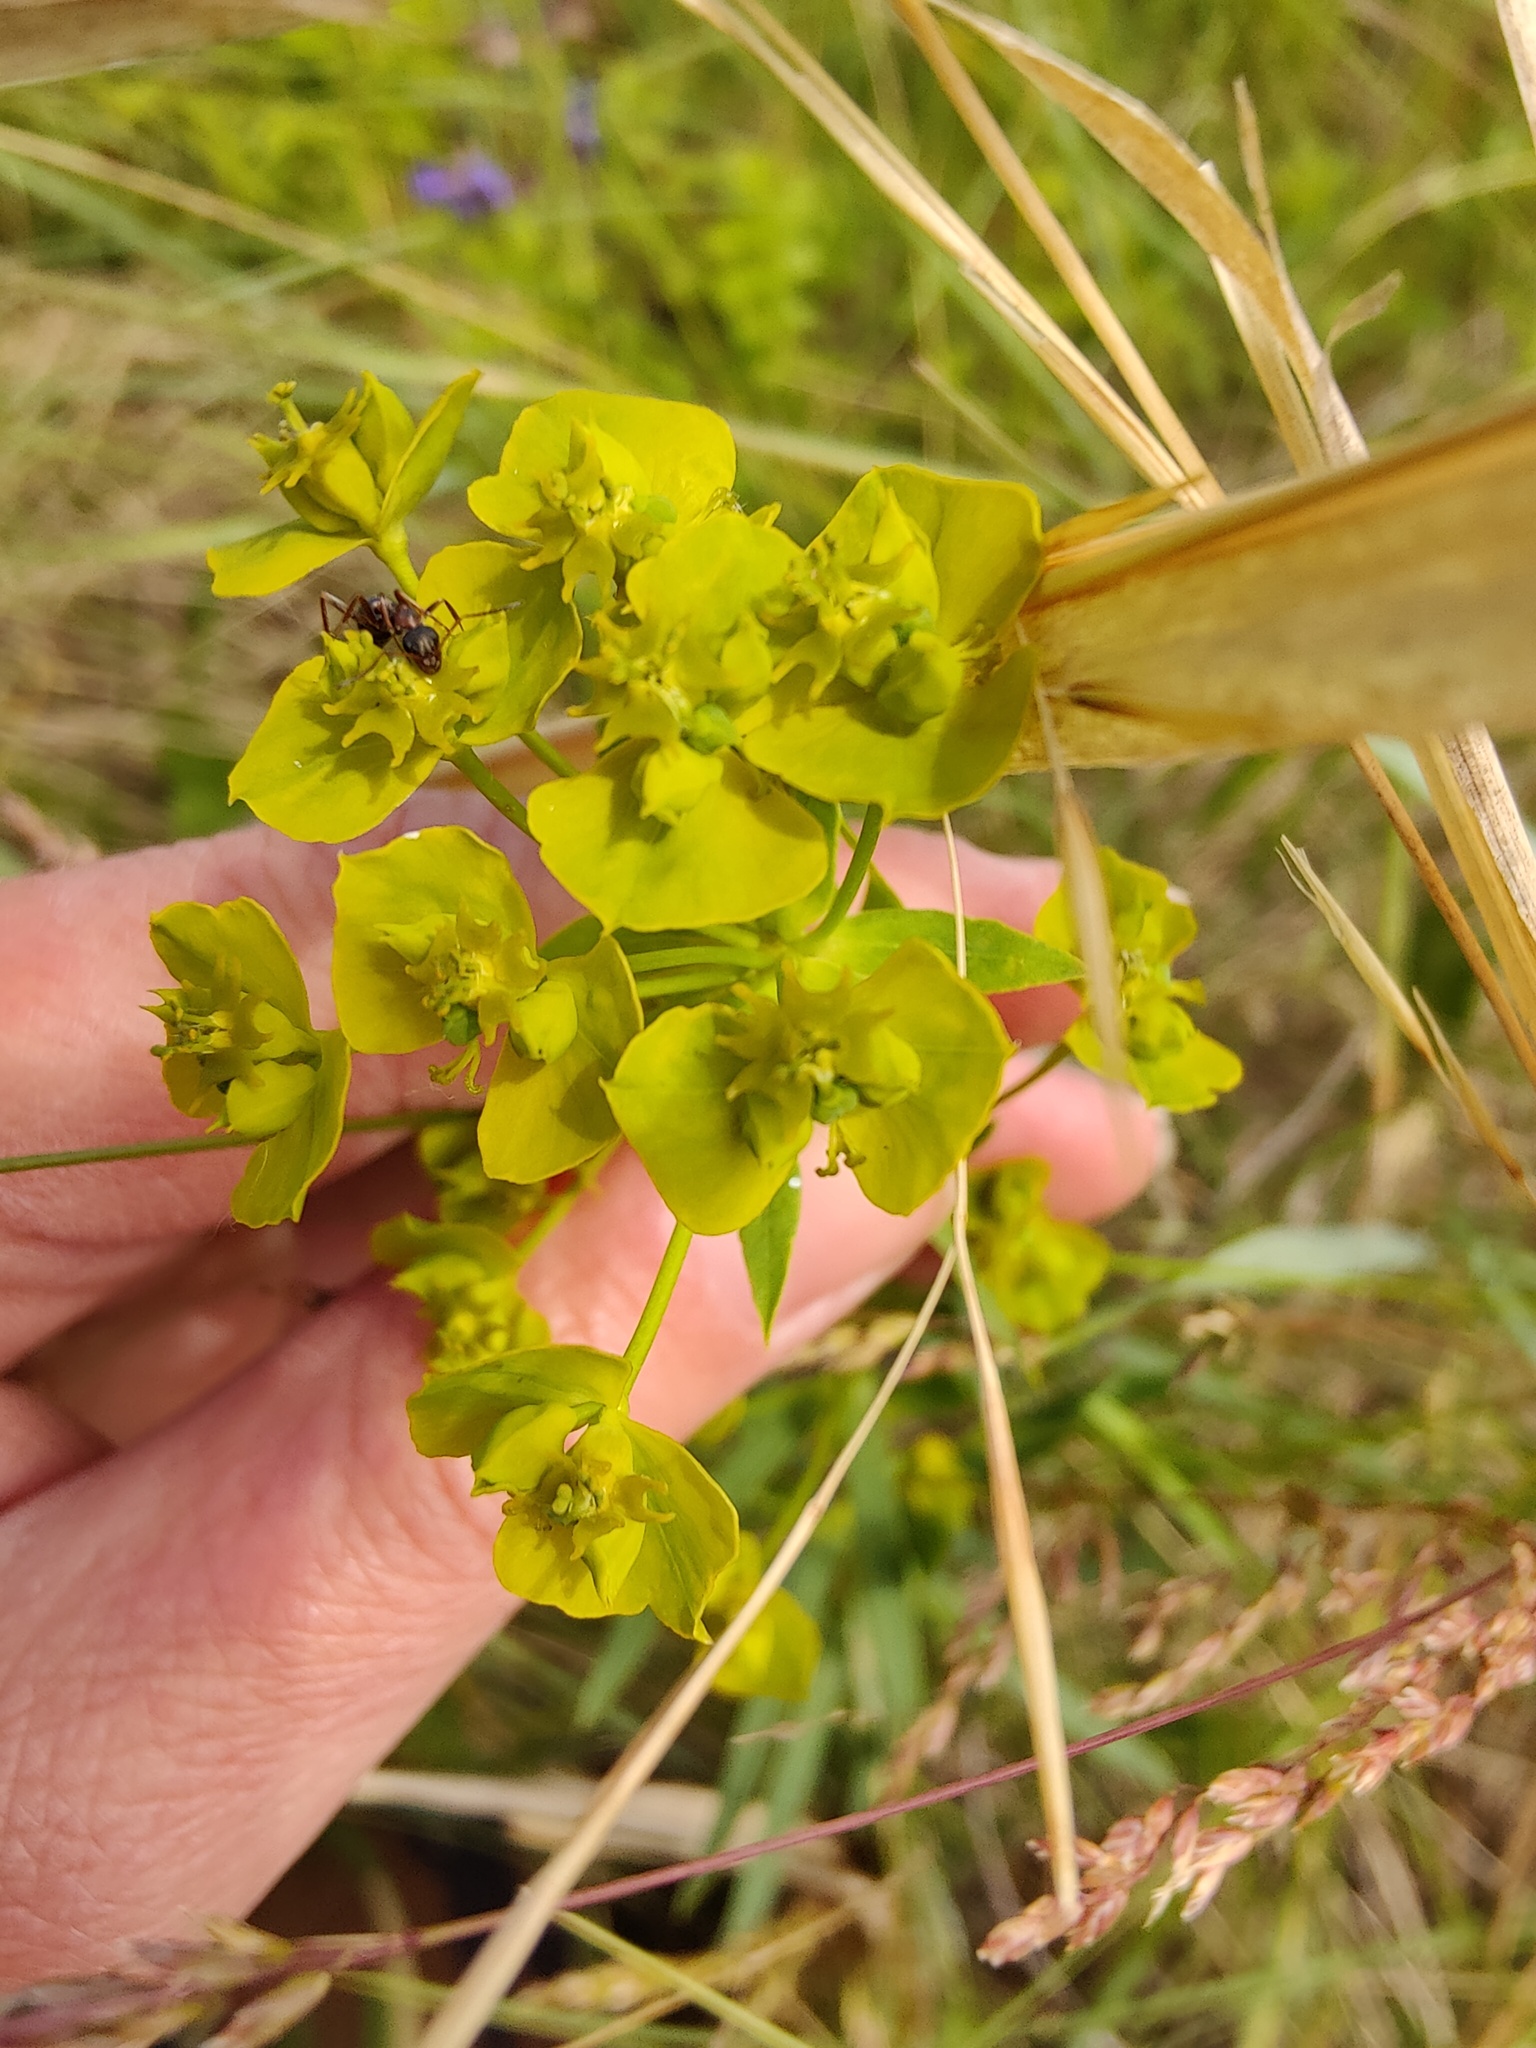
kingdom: Plantae
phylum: Tracheophyta
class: Magnoliopsida
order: Malpighiales
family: Euphorbiaceae
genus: Euphorbia
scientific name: Euphorbia virgata
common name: Leafy spurge
